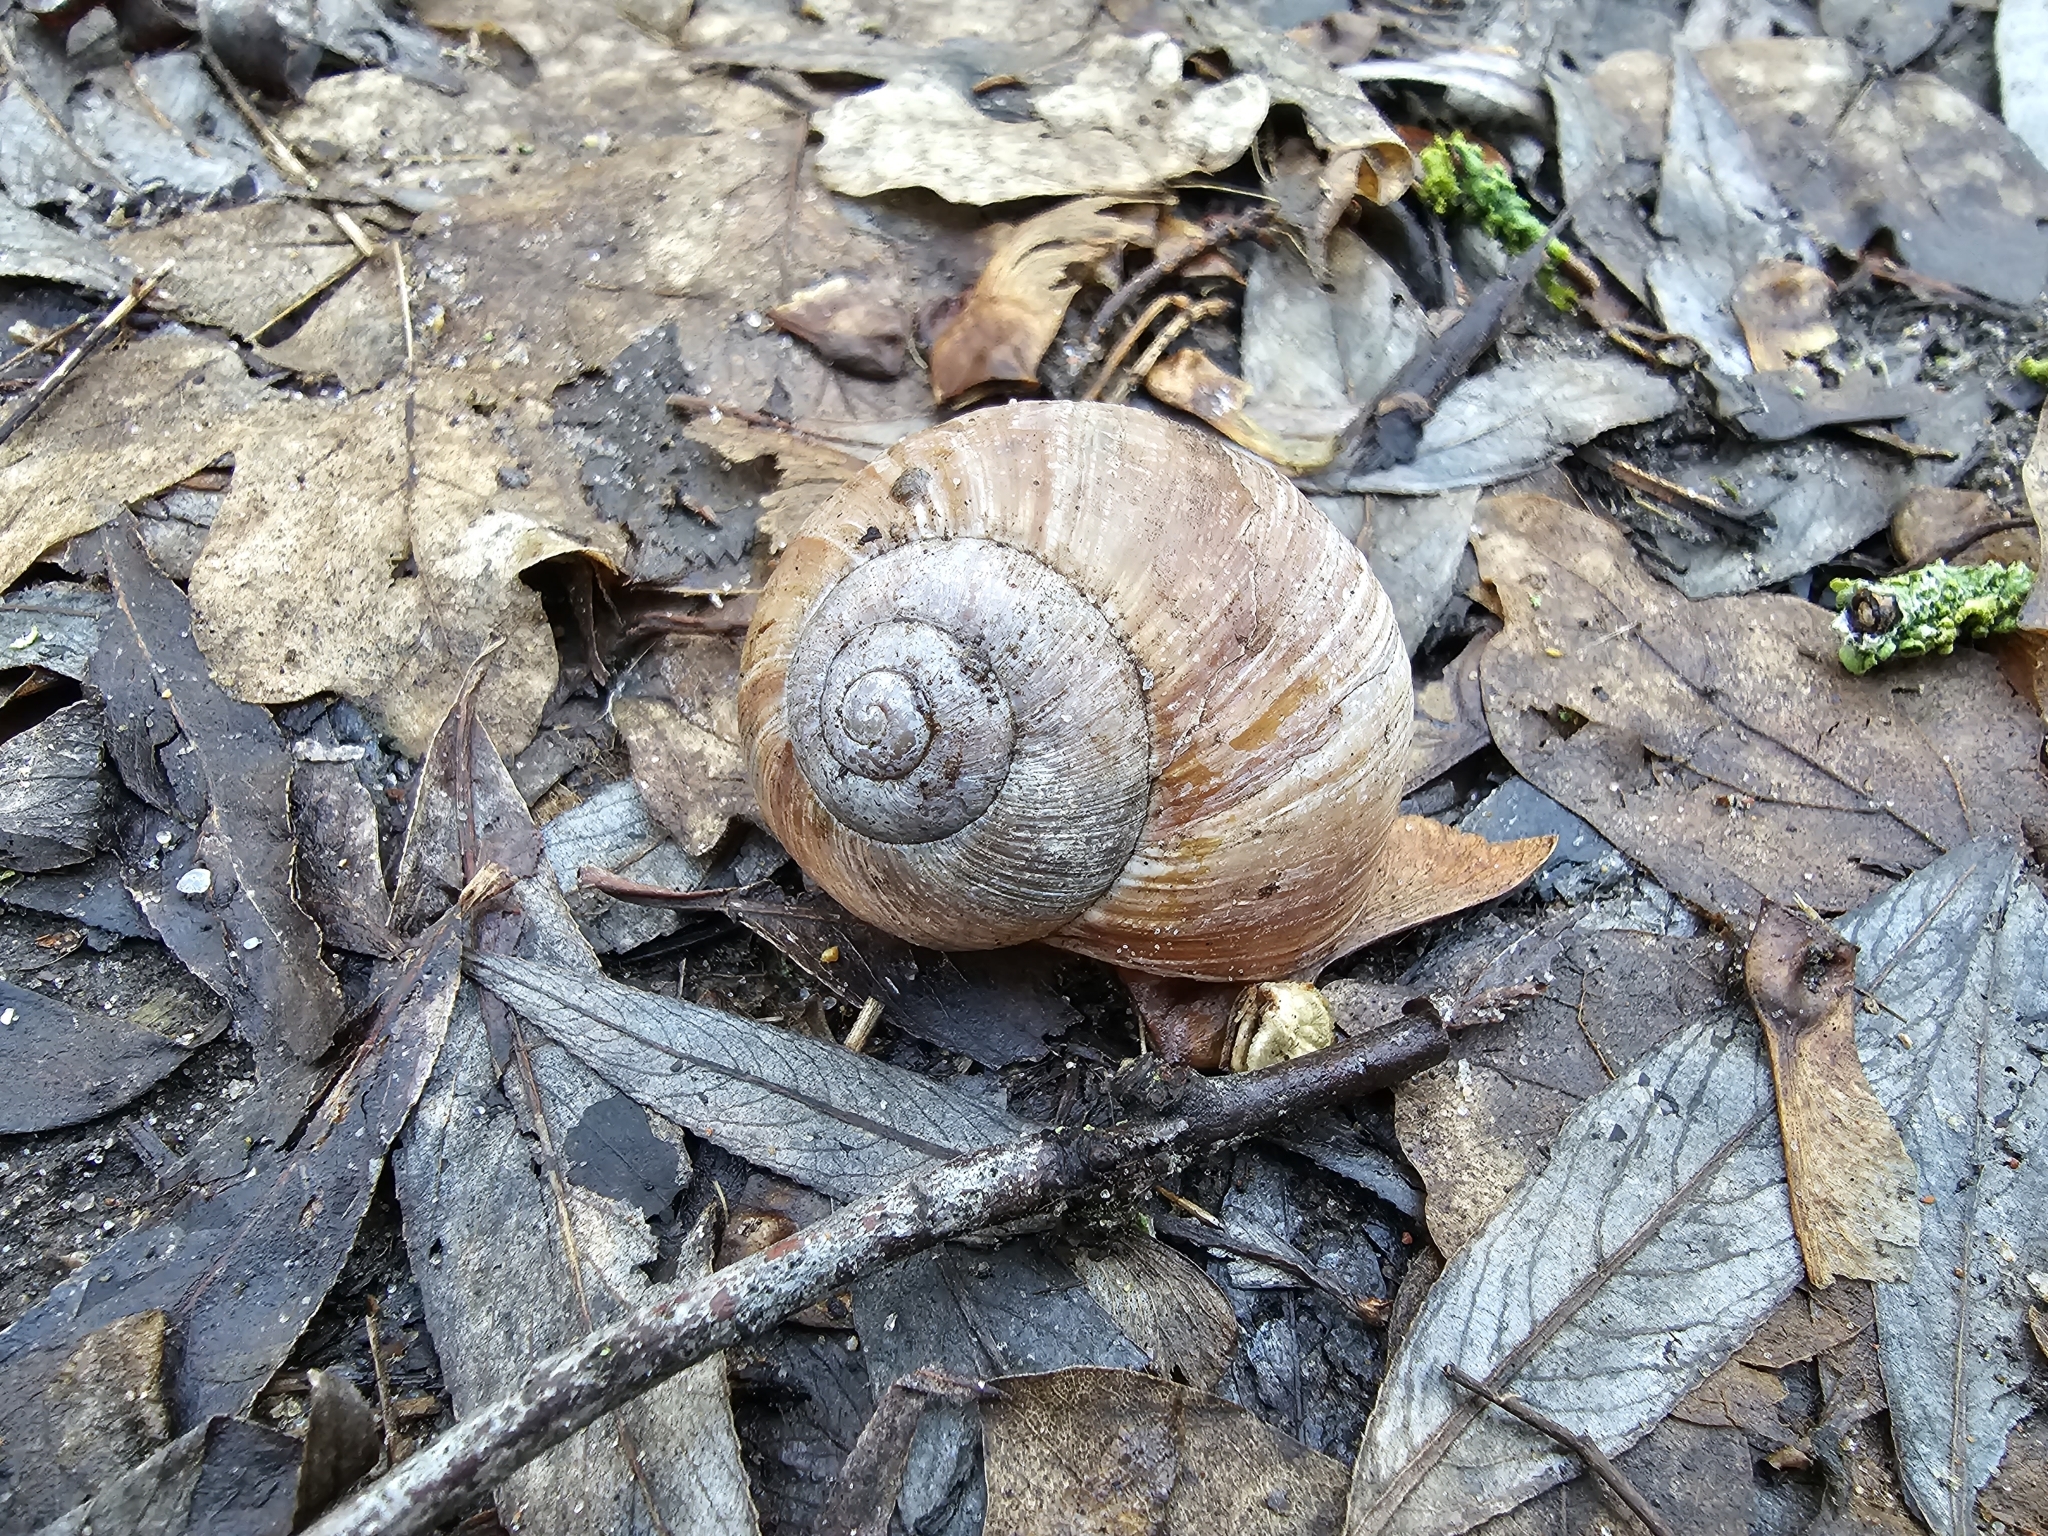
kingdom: Animalia
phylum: Mollusca
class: Gastropoda
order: Stylommatophora
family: Helicidae
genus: Helix
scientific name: Helix pomatia
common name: Roman snail
